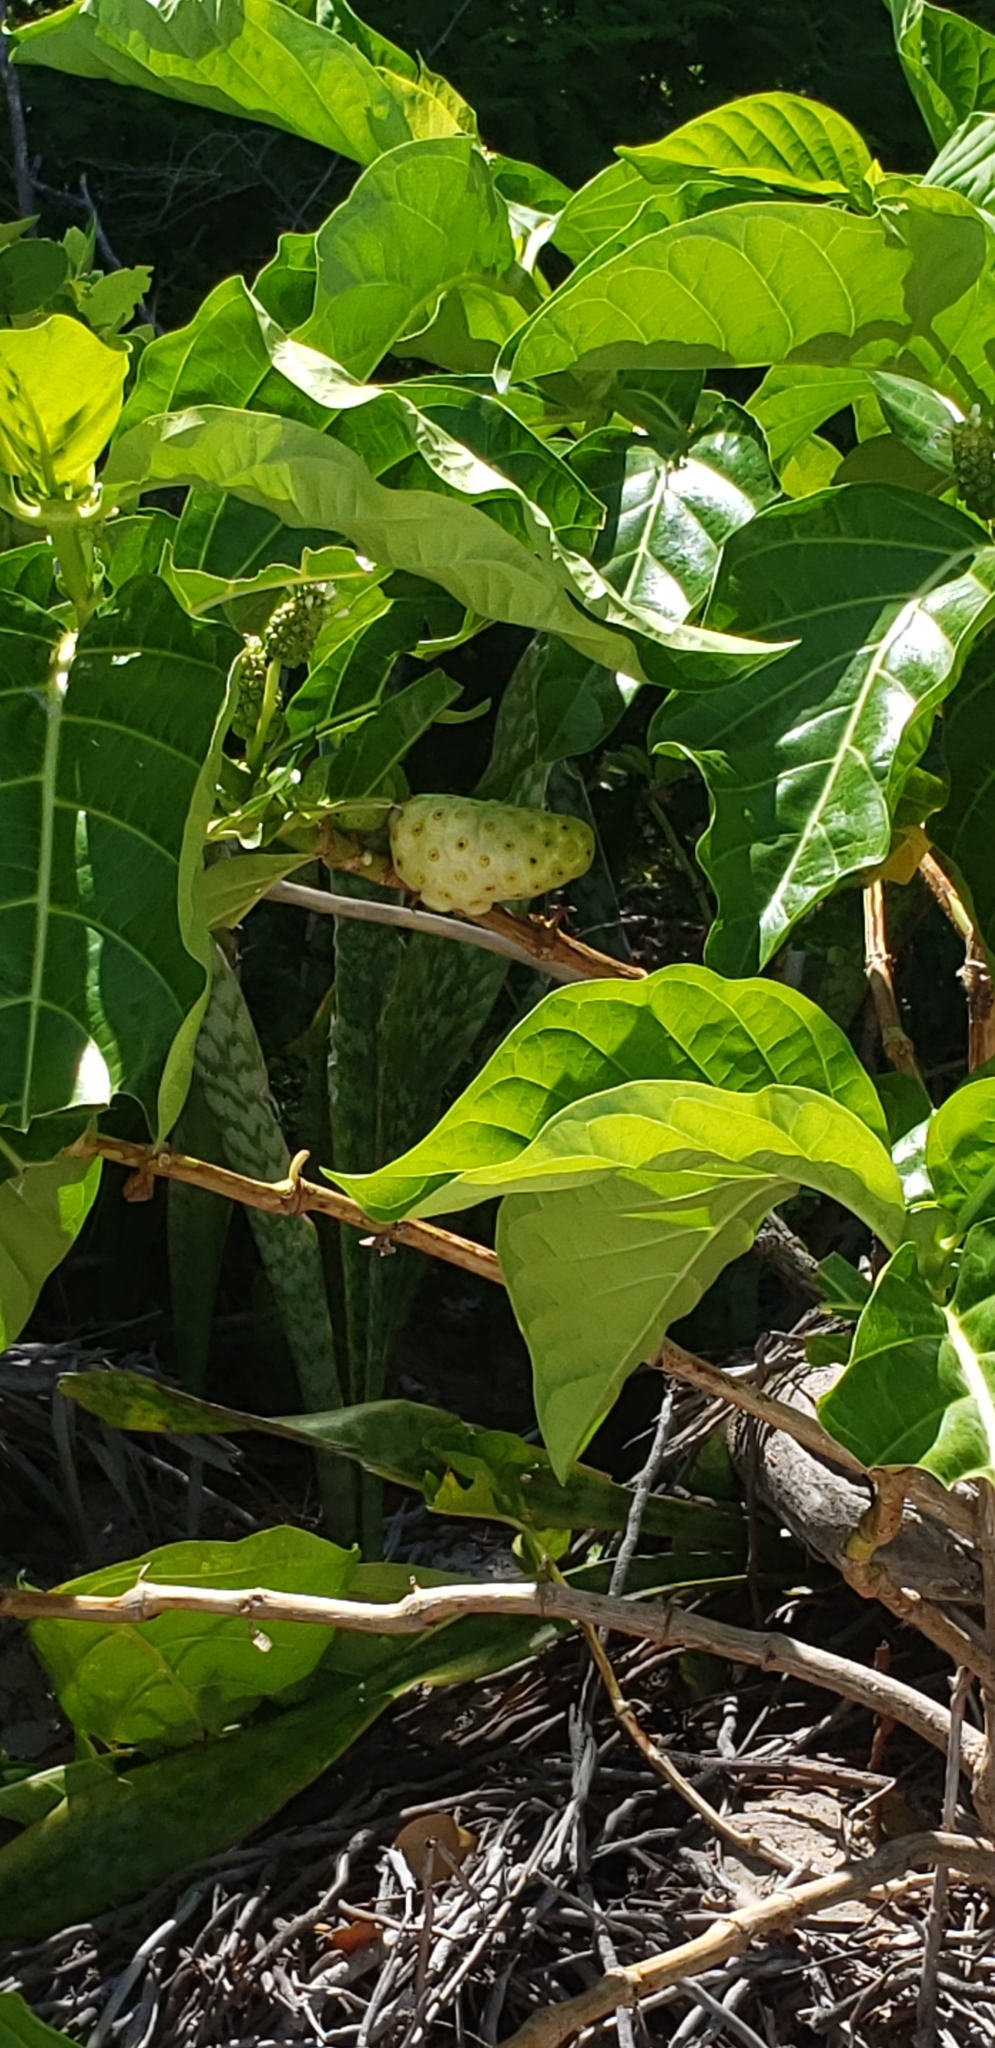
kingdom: Plantae
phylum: Tracheophyta
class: Magnoliopsida
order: Gentianales
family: Rubiaceae
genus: Morinda
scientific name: Morinda citrifolia
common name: Indian-mulberry
